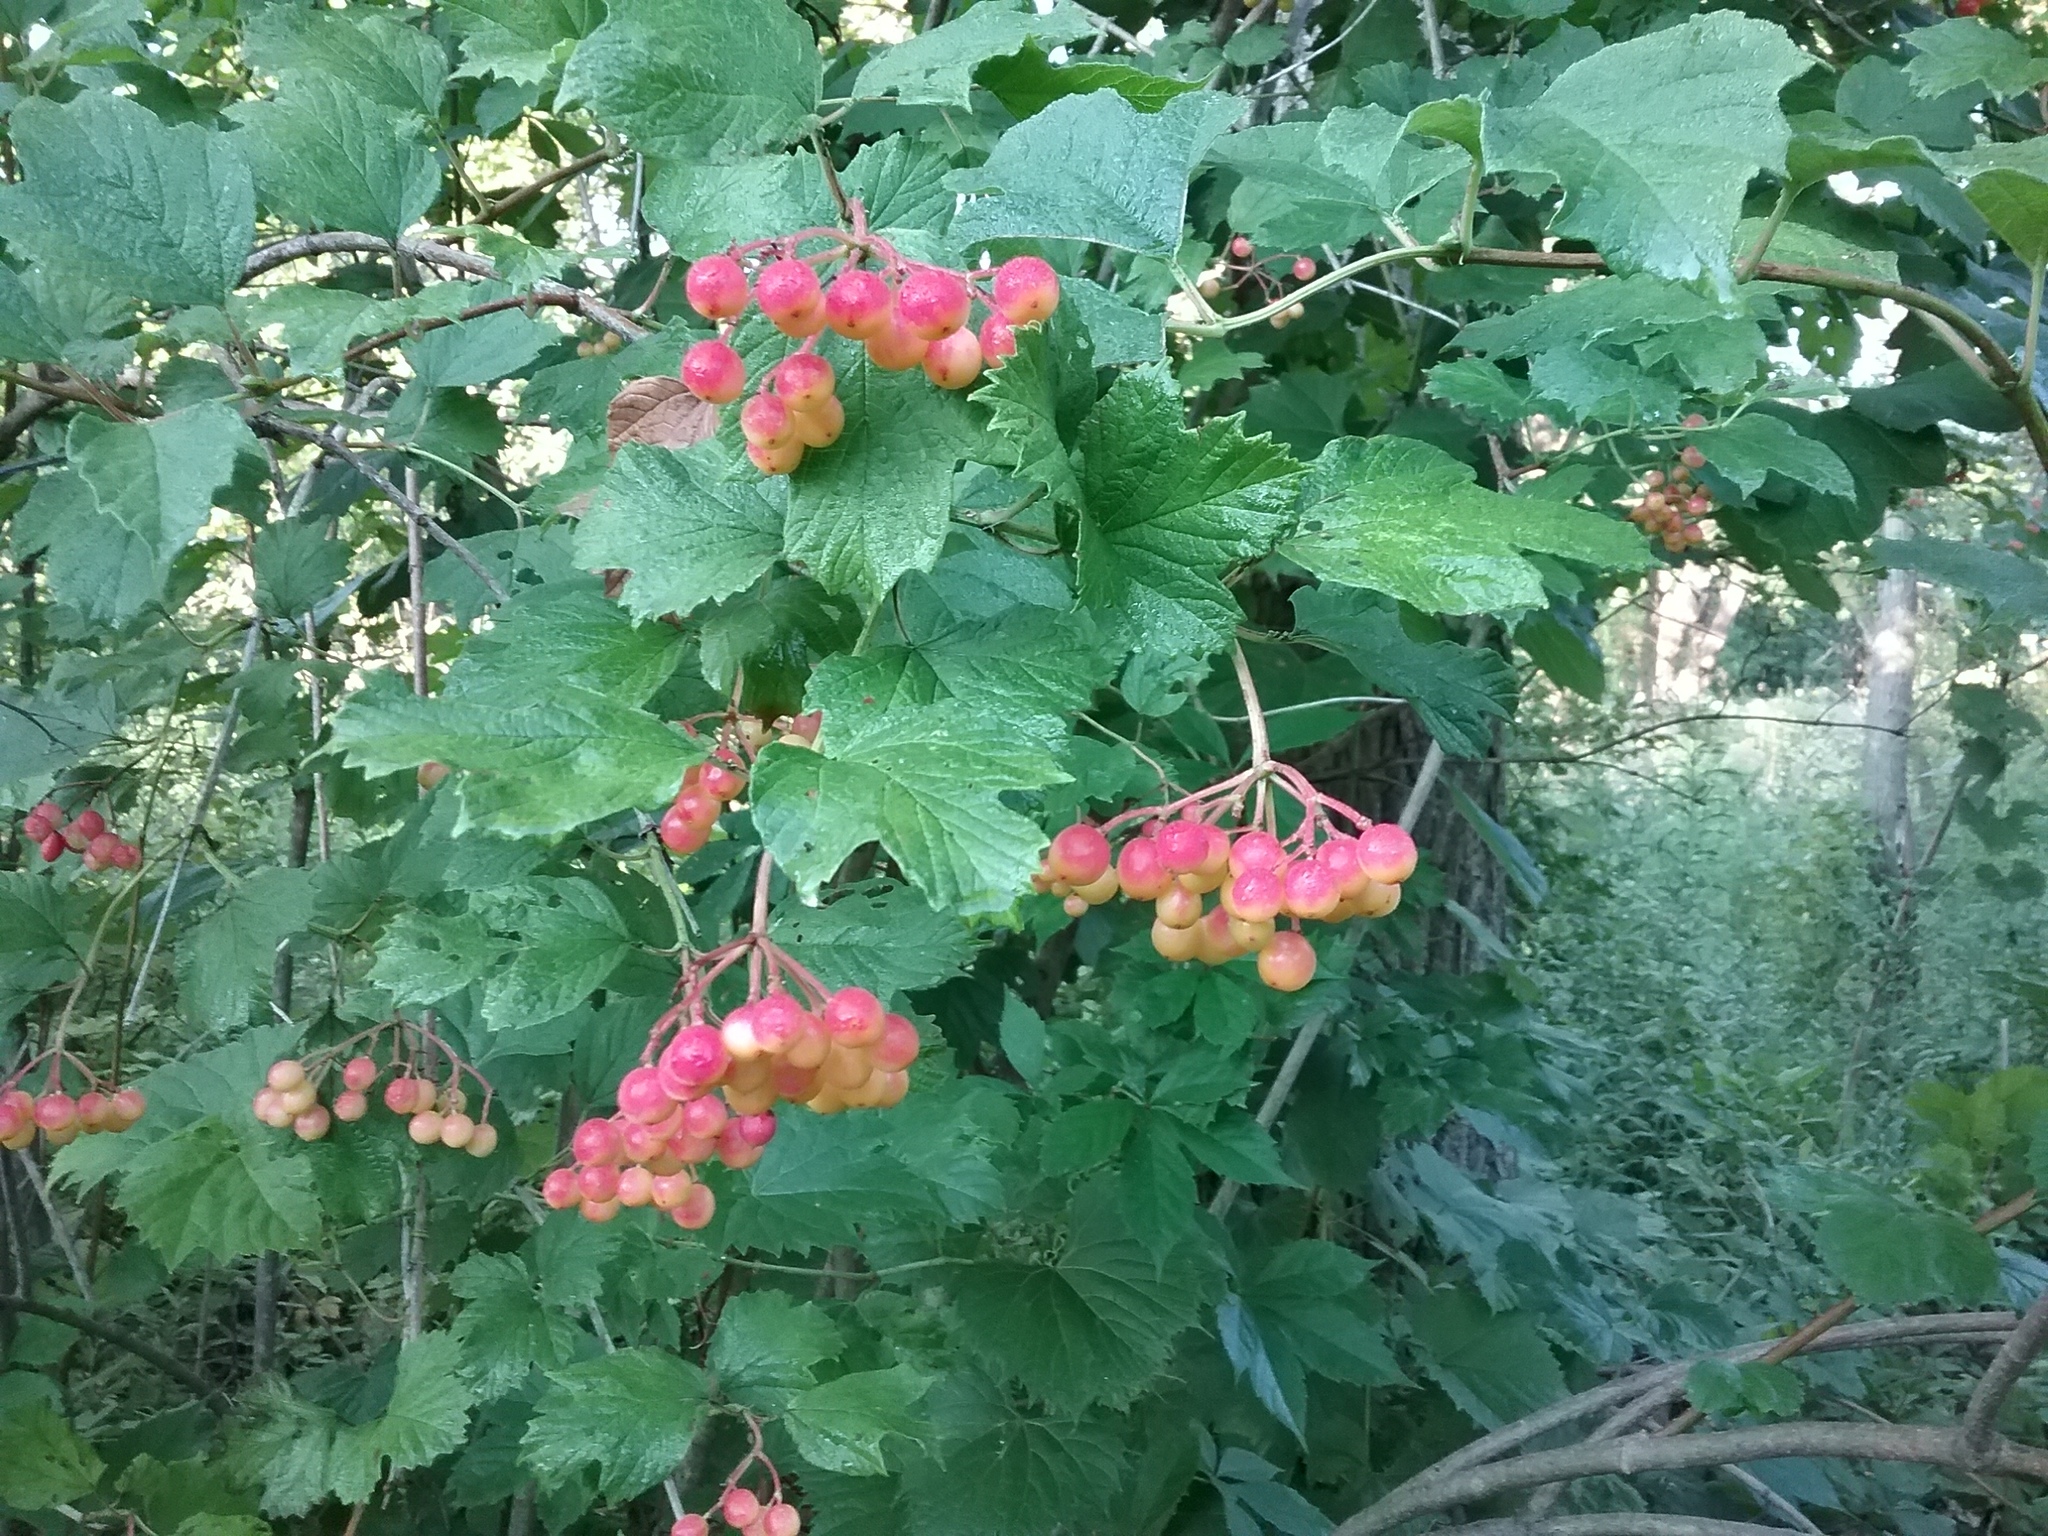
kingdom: Plantae
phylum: Tracheophyta
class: Magnoliopsida
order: Dipsacales
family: Viburnaceae
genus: Viburnum
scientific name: Viburnum opulus
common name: Guelder-rose
